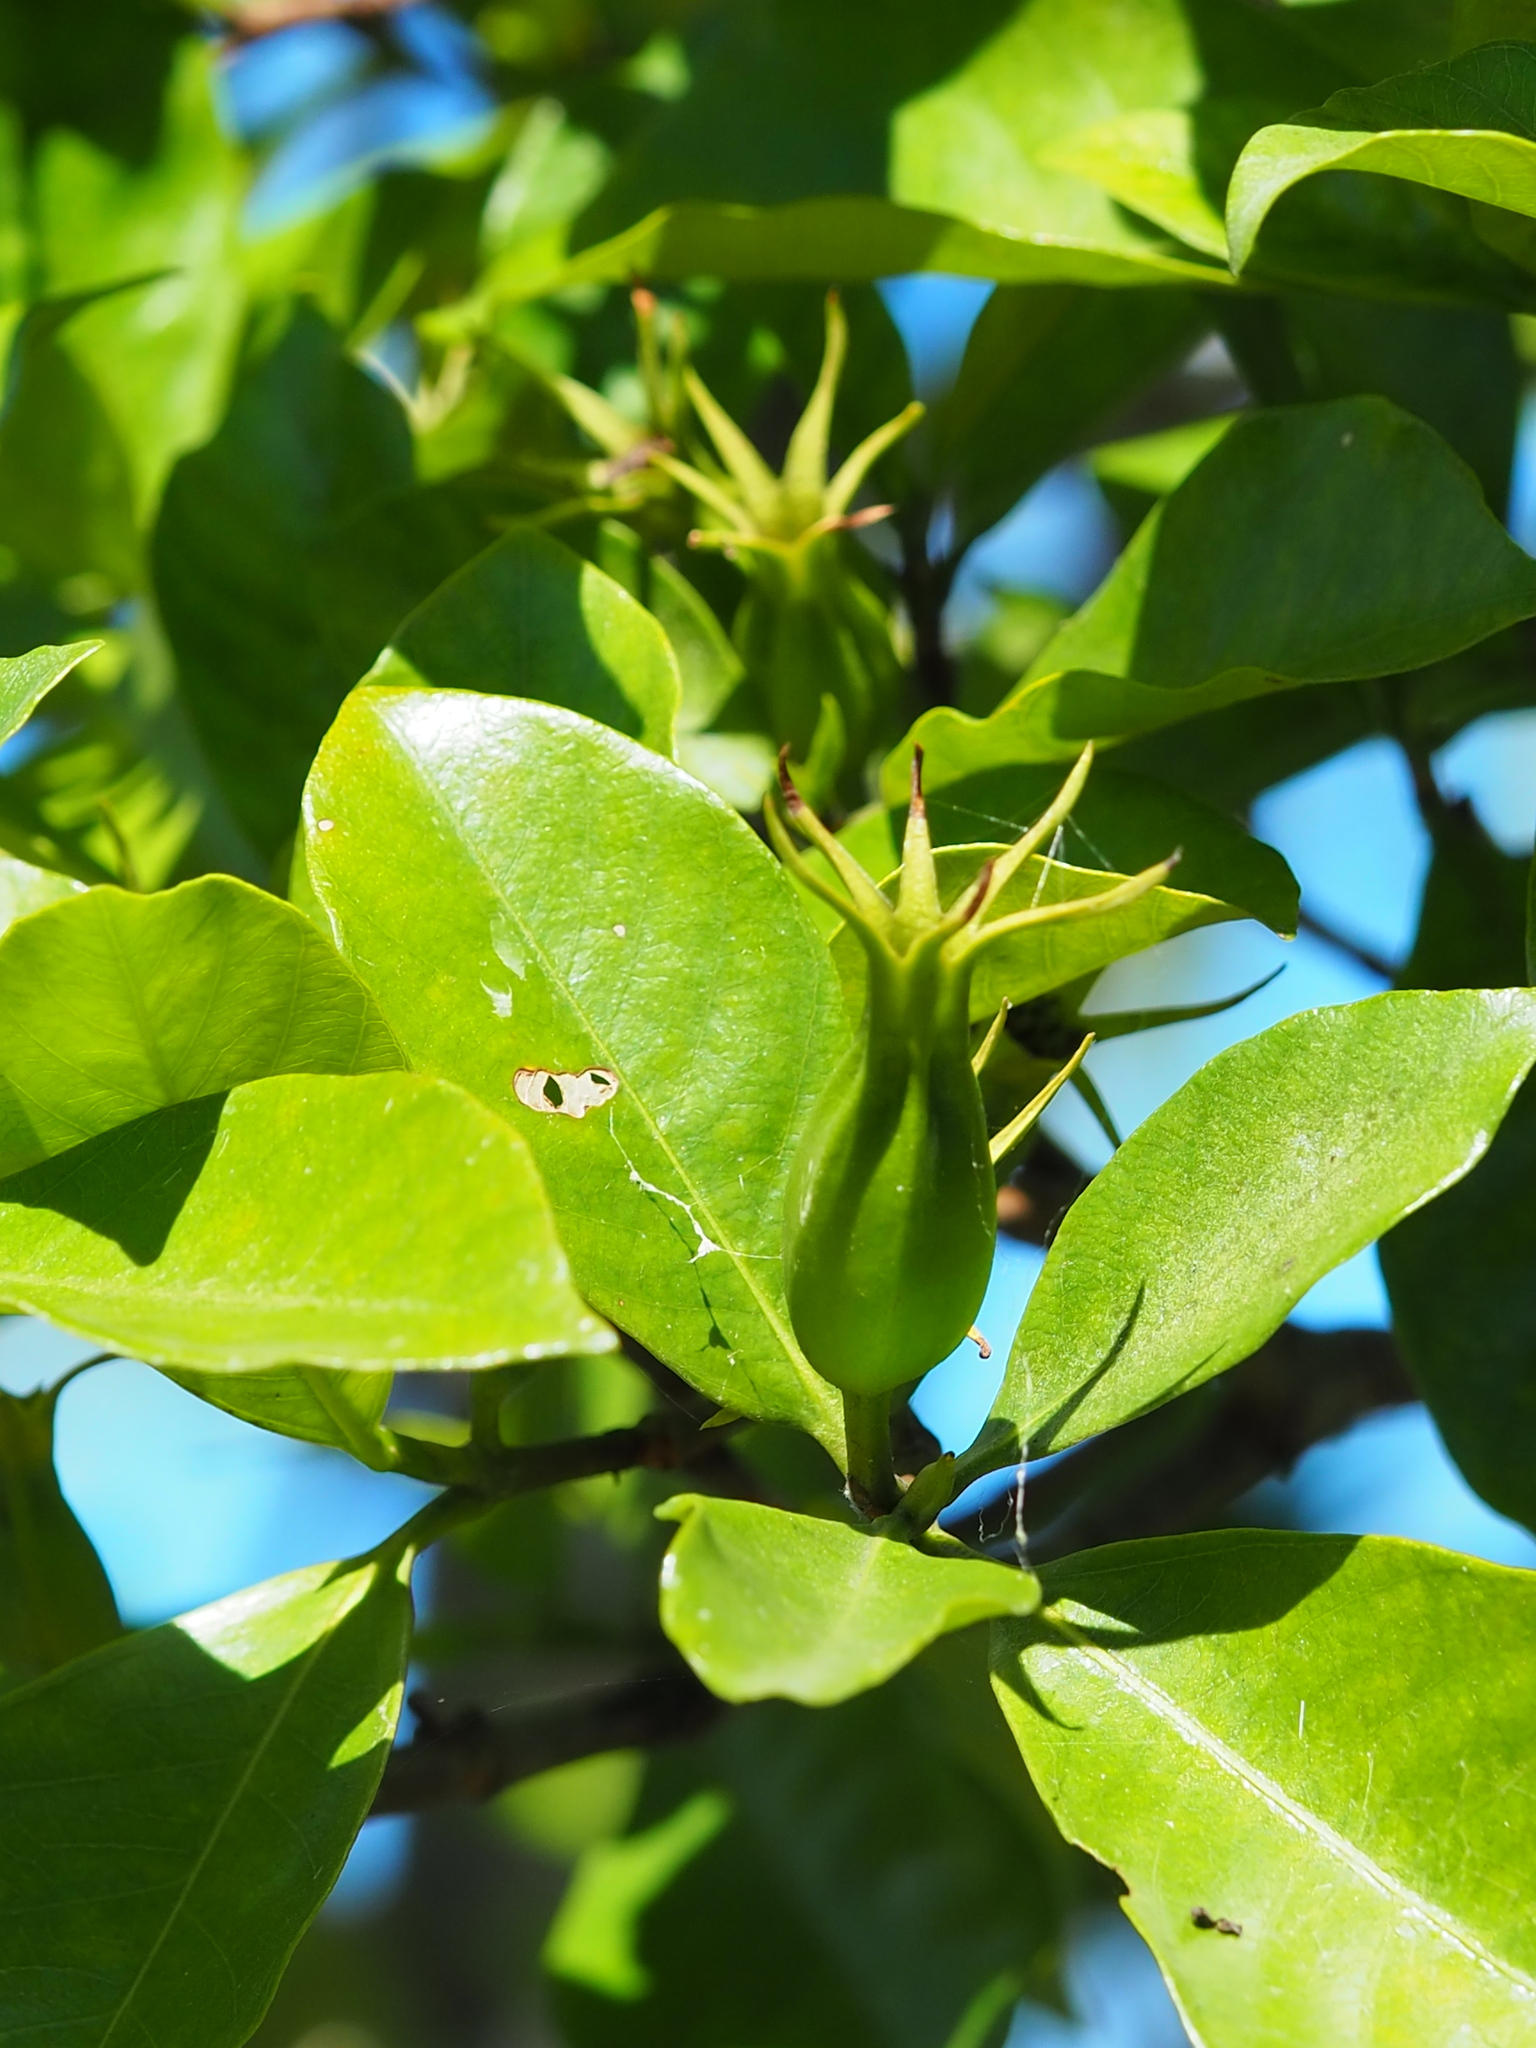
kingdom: Plantae
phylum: Tracheophyta
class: Magnoliopsida
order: Gentianales
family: Rubiaceae
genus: Gardenia
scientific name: Gardenia jasminoides
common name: Cape-jasmine
